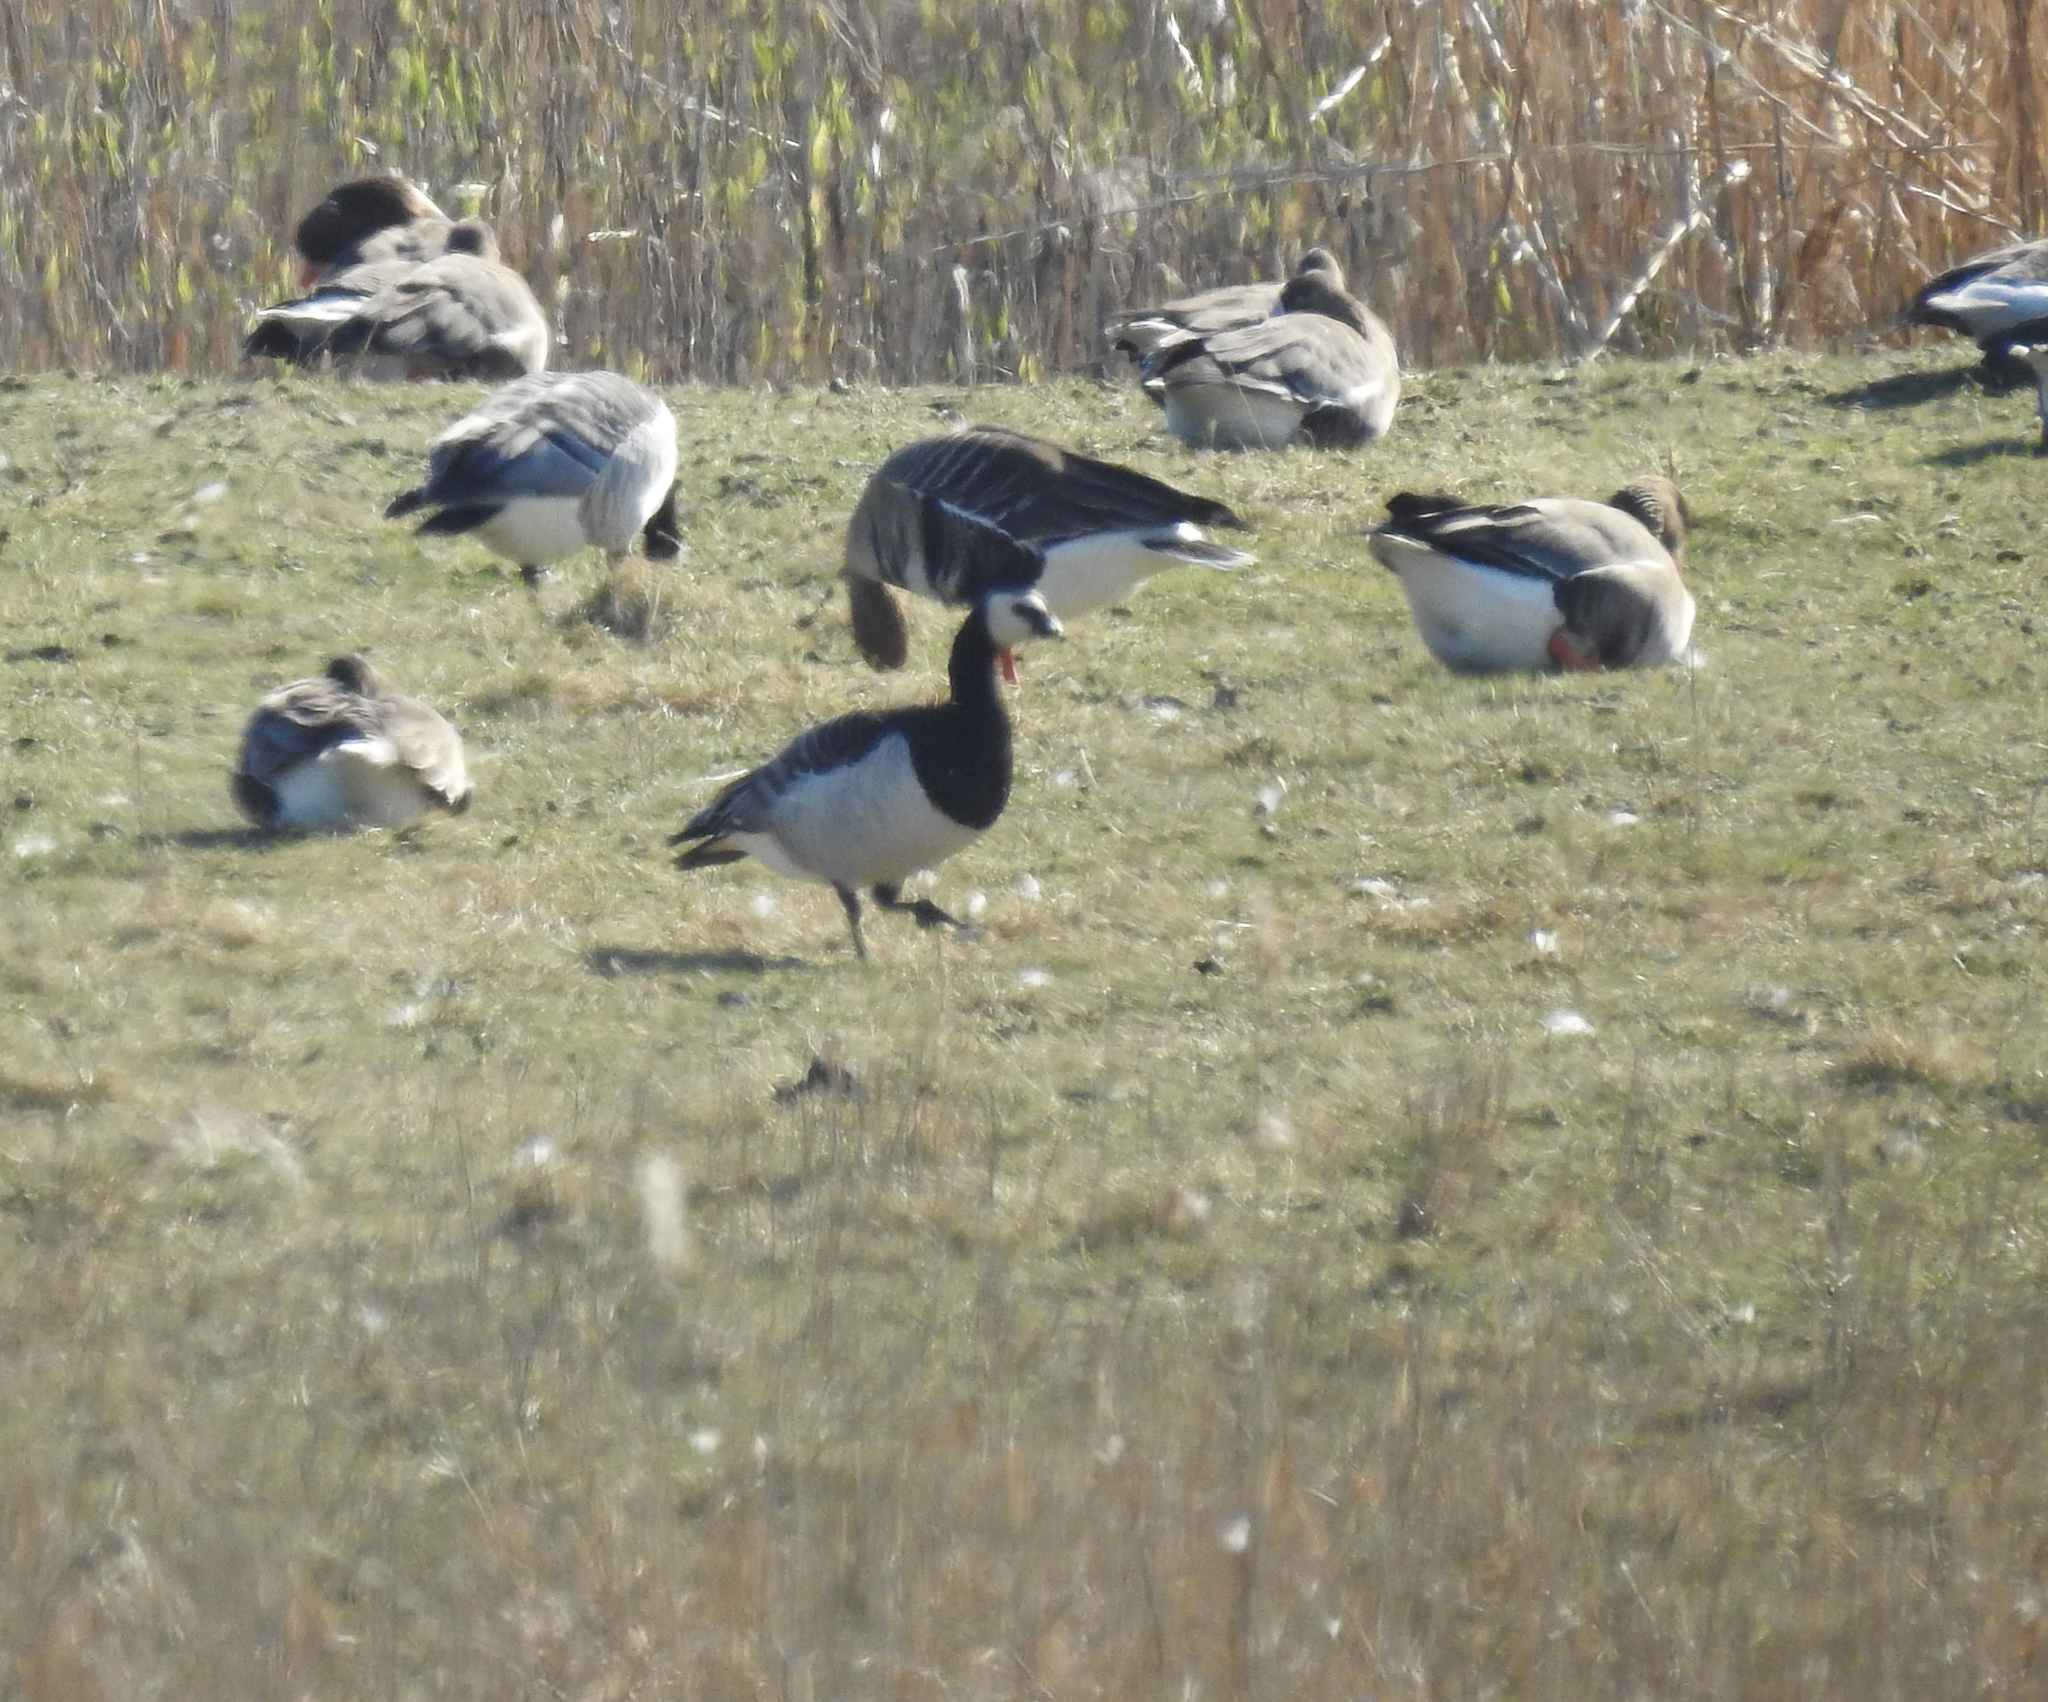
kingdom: Animalia
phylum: Chordata
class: Aves
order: Anseriformes
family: Anatidae
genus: Branta
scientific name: Branta leucopsis
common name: Barnacle goose
